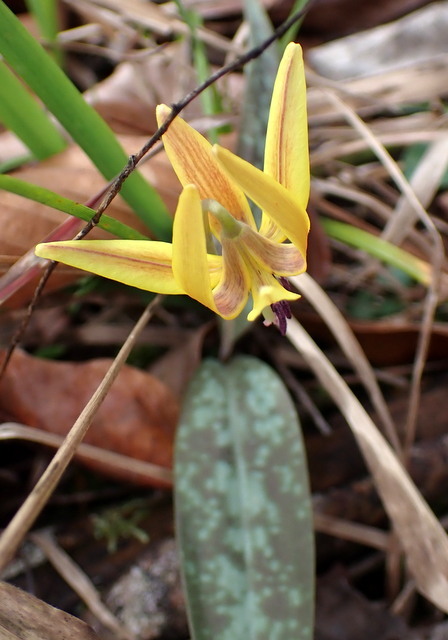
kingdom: Plantae
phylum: Tracheophyta
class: Liliopsida
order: Liliales
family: Liliaceae
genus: Erythronium
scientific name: Erythronium umbilicatum
